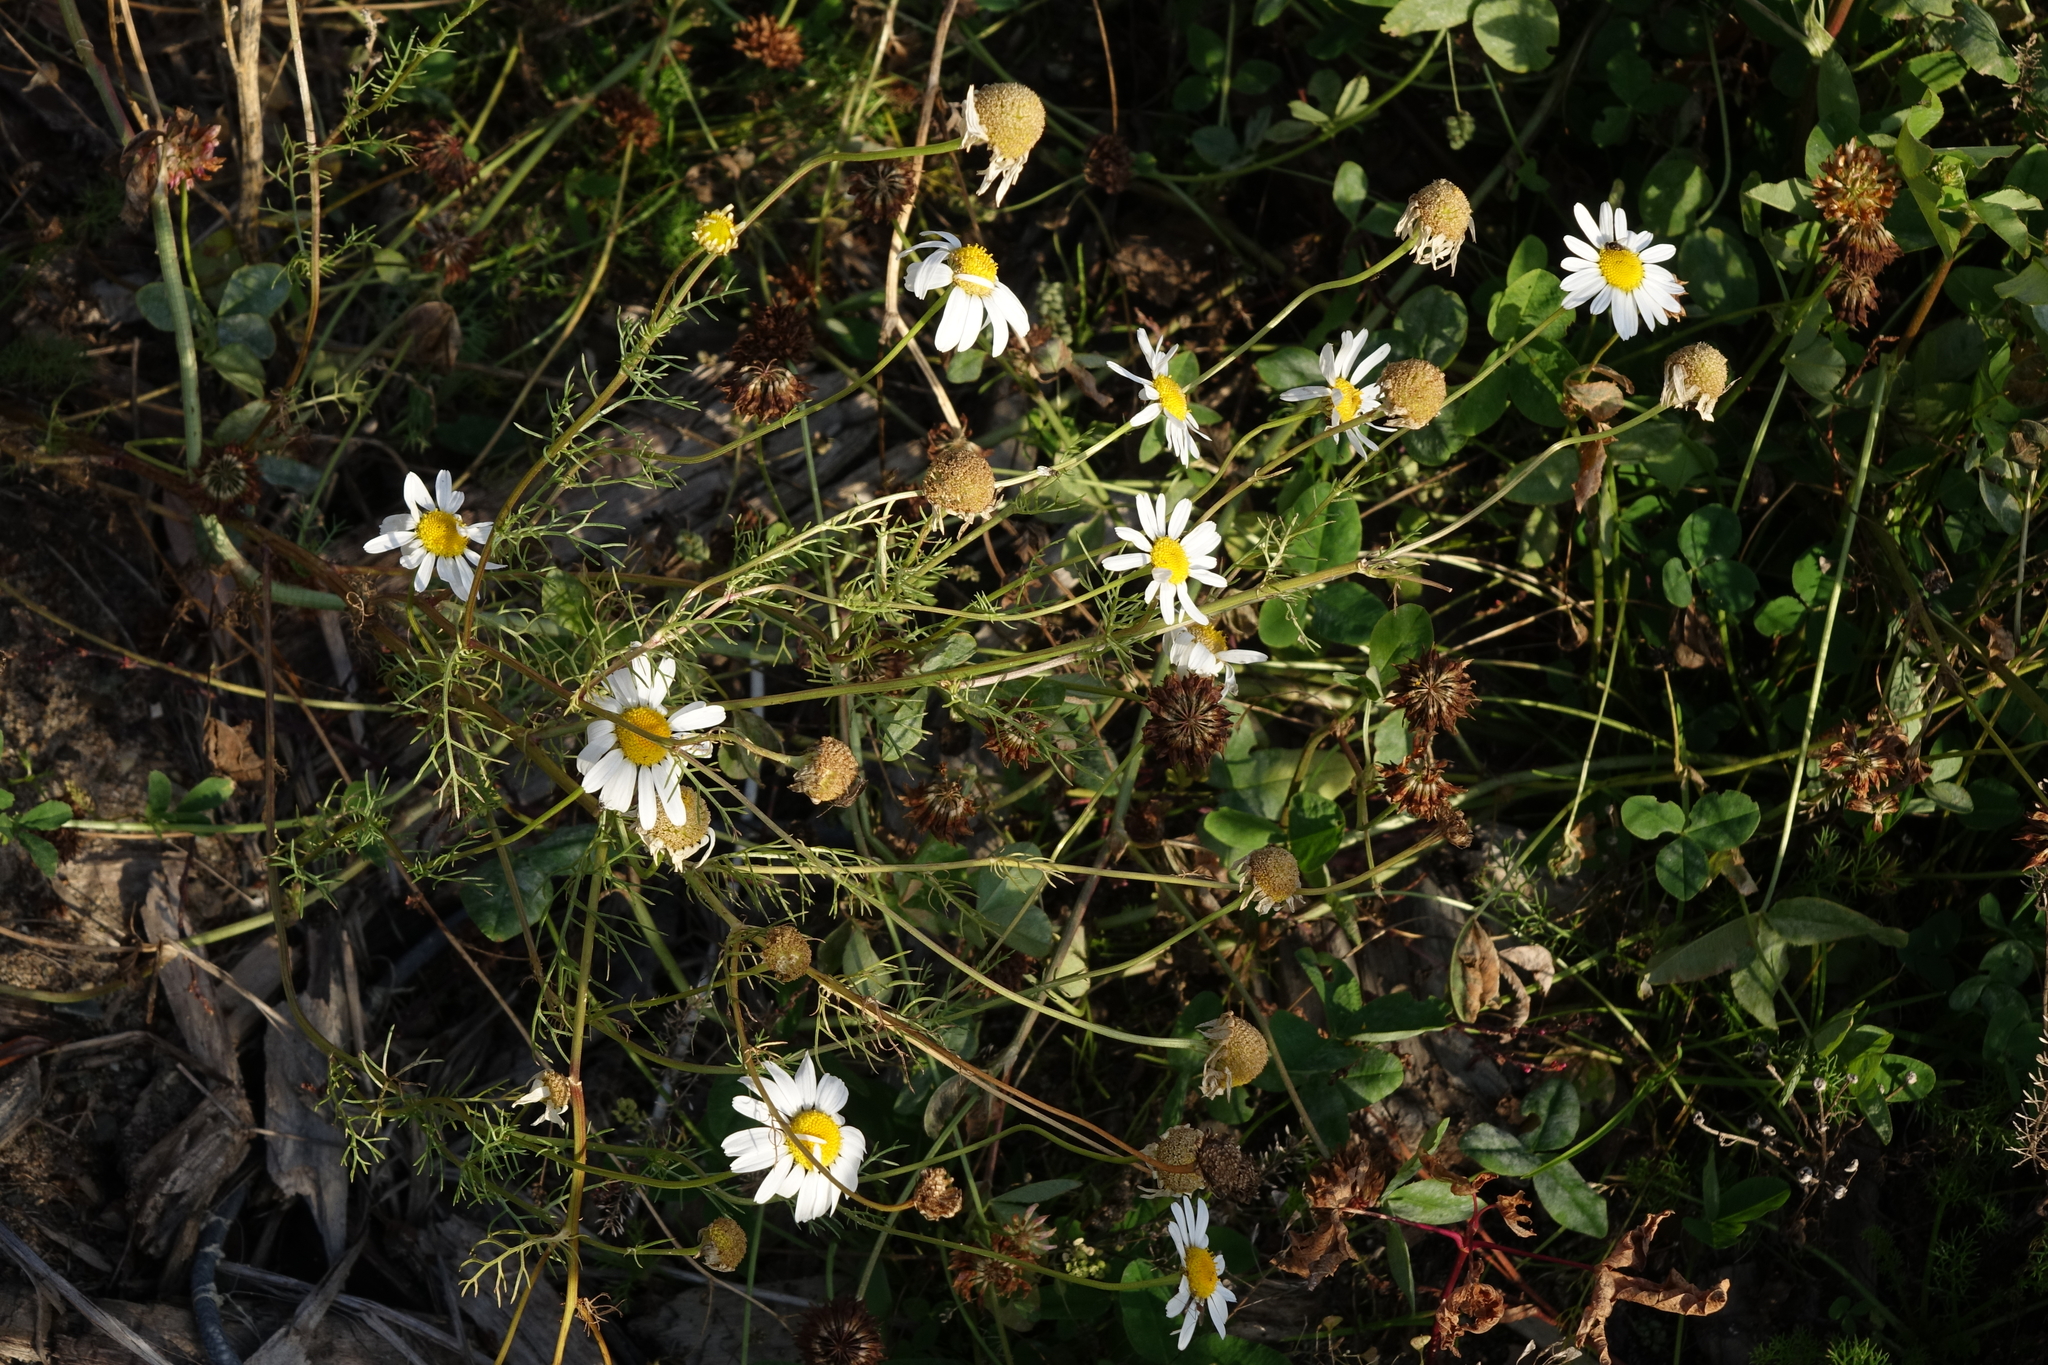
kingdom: Plantae
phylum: Tracheophyta
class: Magnoliopsida
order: Asterales
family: Asteraceae
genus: Tripleurospermum
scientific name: Tripleurospermum inodorum
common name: Scentless mayweed
